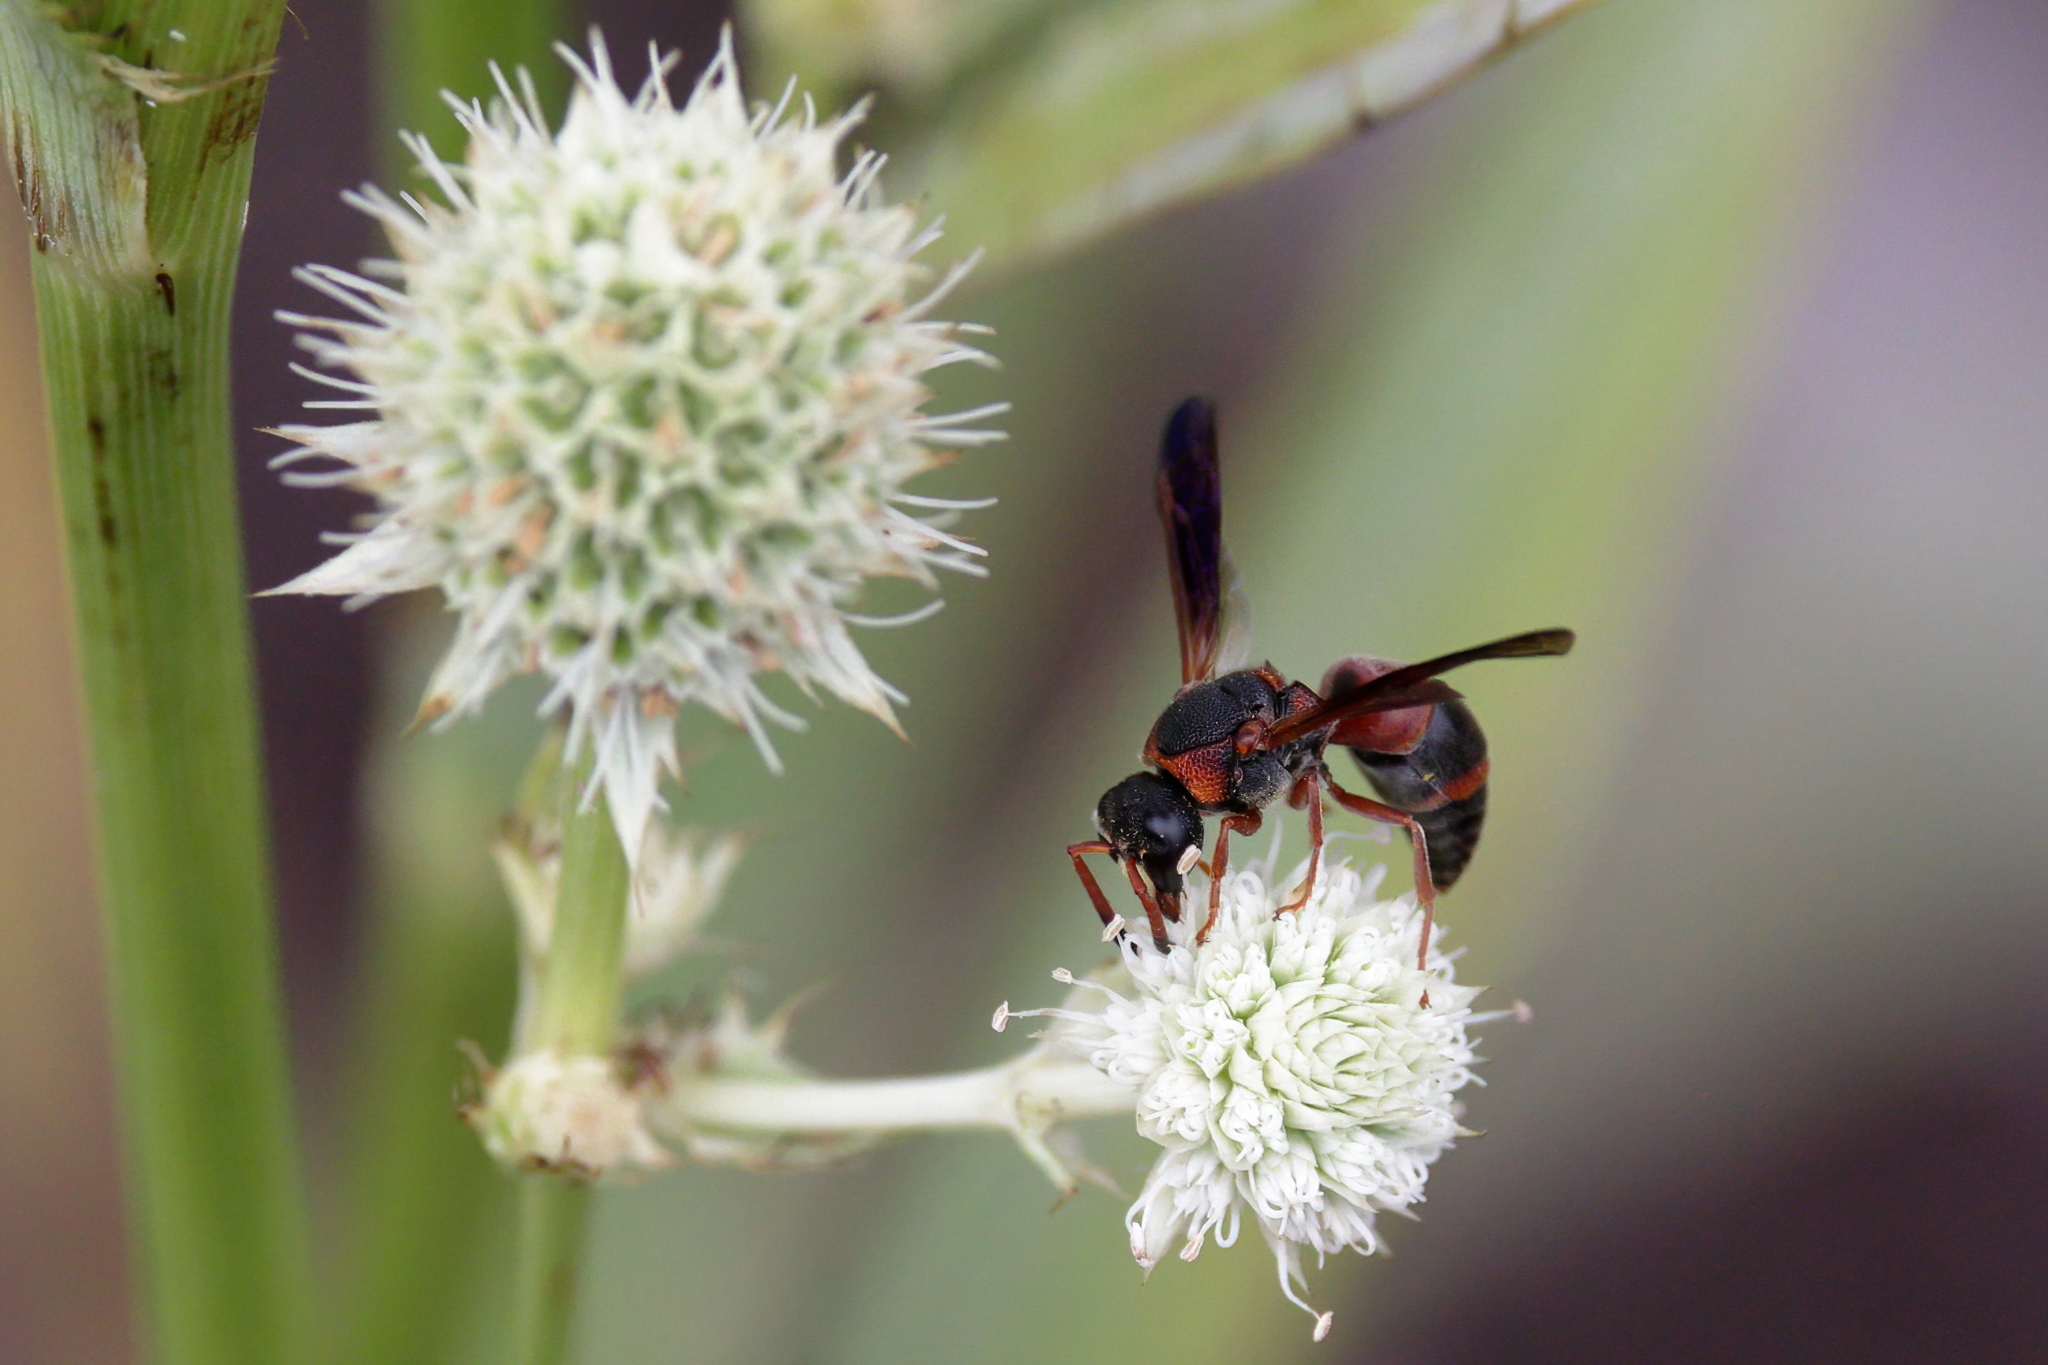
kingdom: Animalia
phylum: Arthropoda
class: Insecta
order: Hymenoptera
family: Eumenidae
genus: Pachodynerus
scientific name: Pachodynerus erynnis
